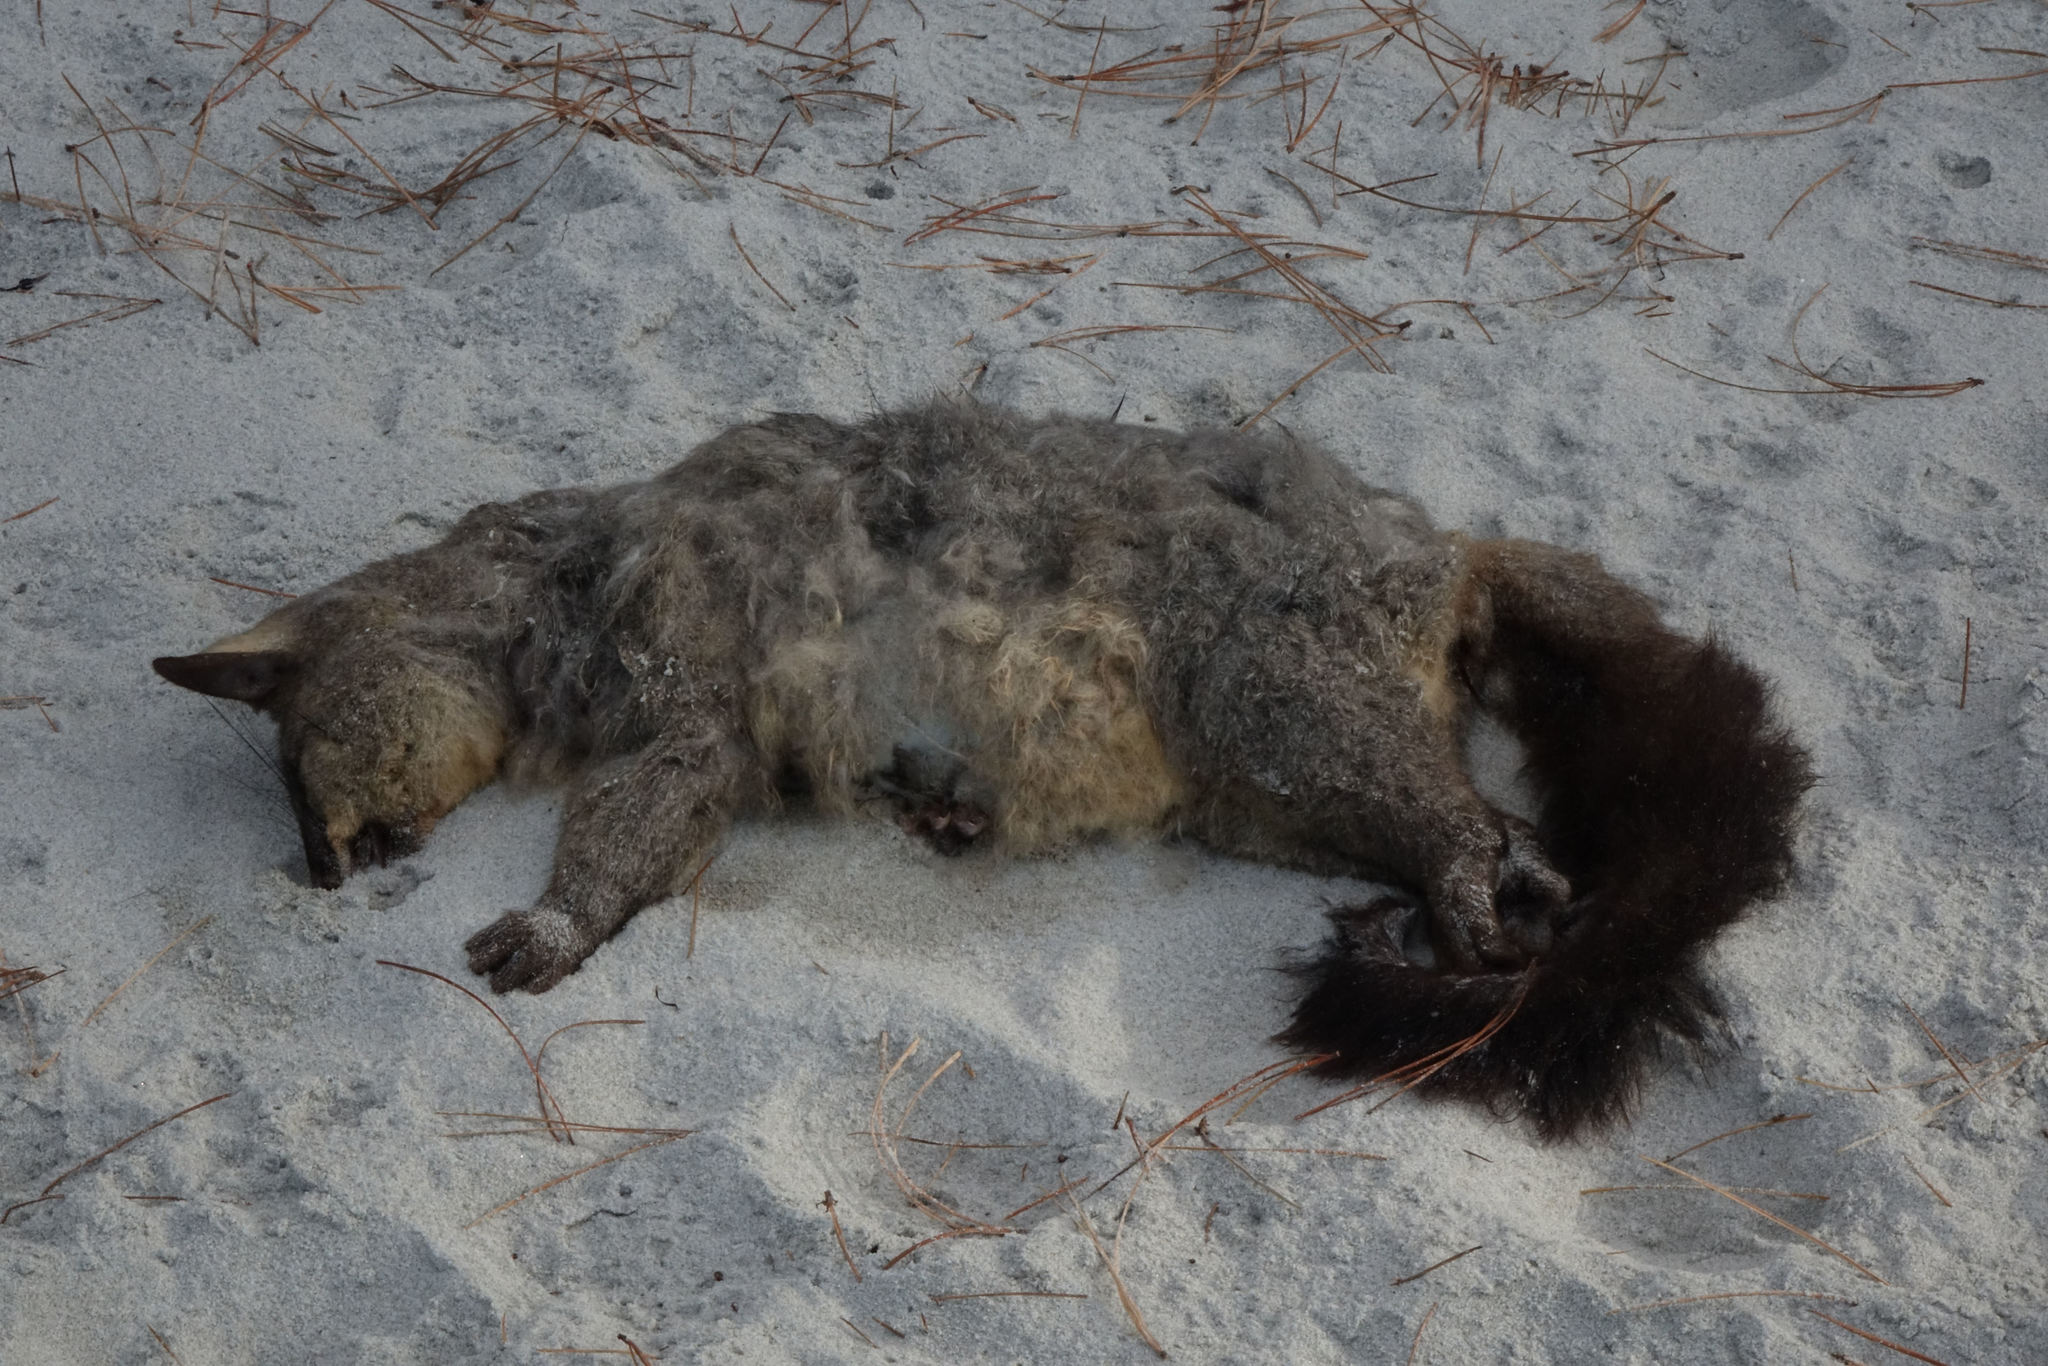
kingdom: Animalia
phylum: Chordata
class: Mammalia
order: Diprotodontia
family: Phalangeridae
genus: Trichosurus
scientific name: Trichosurus vulpecula
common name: Common brushtail
